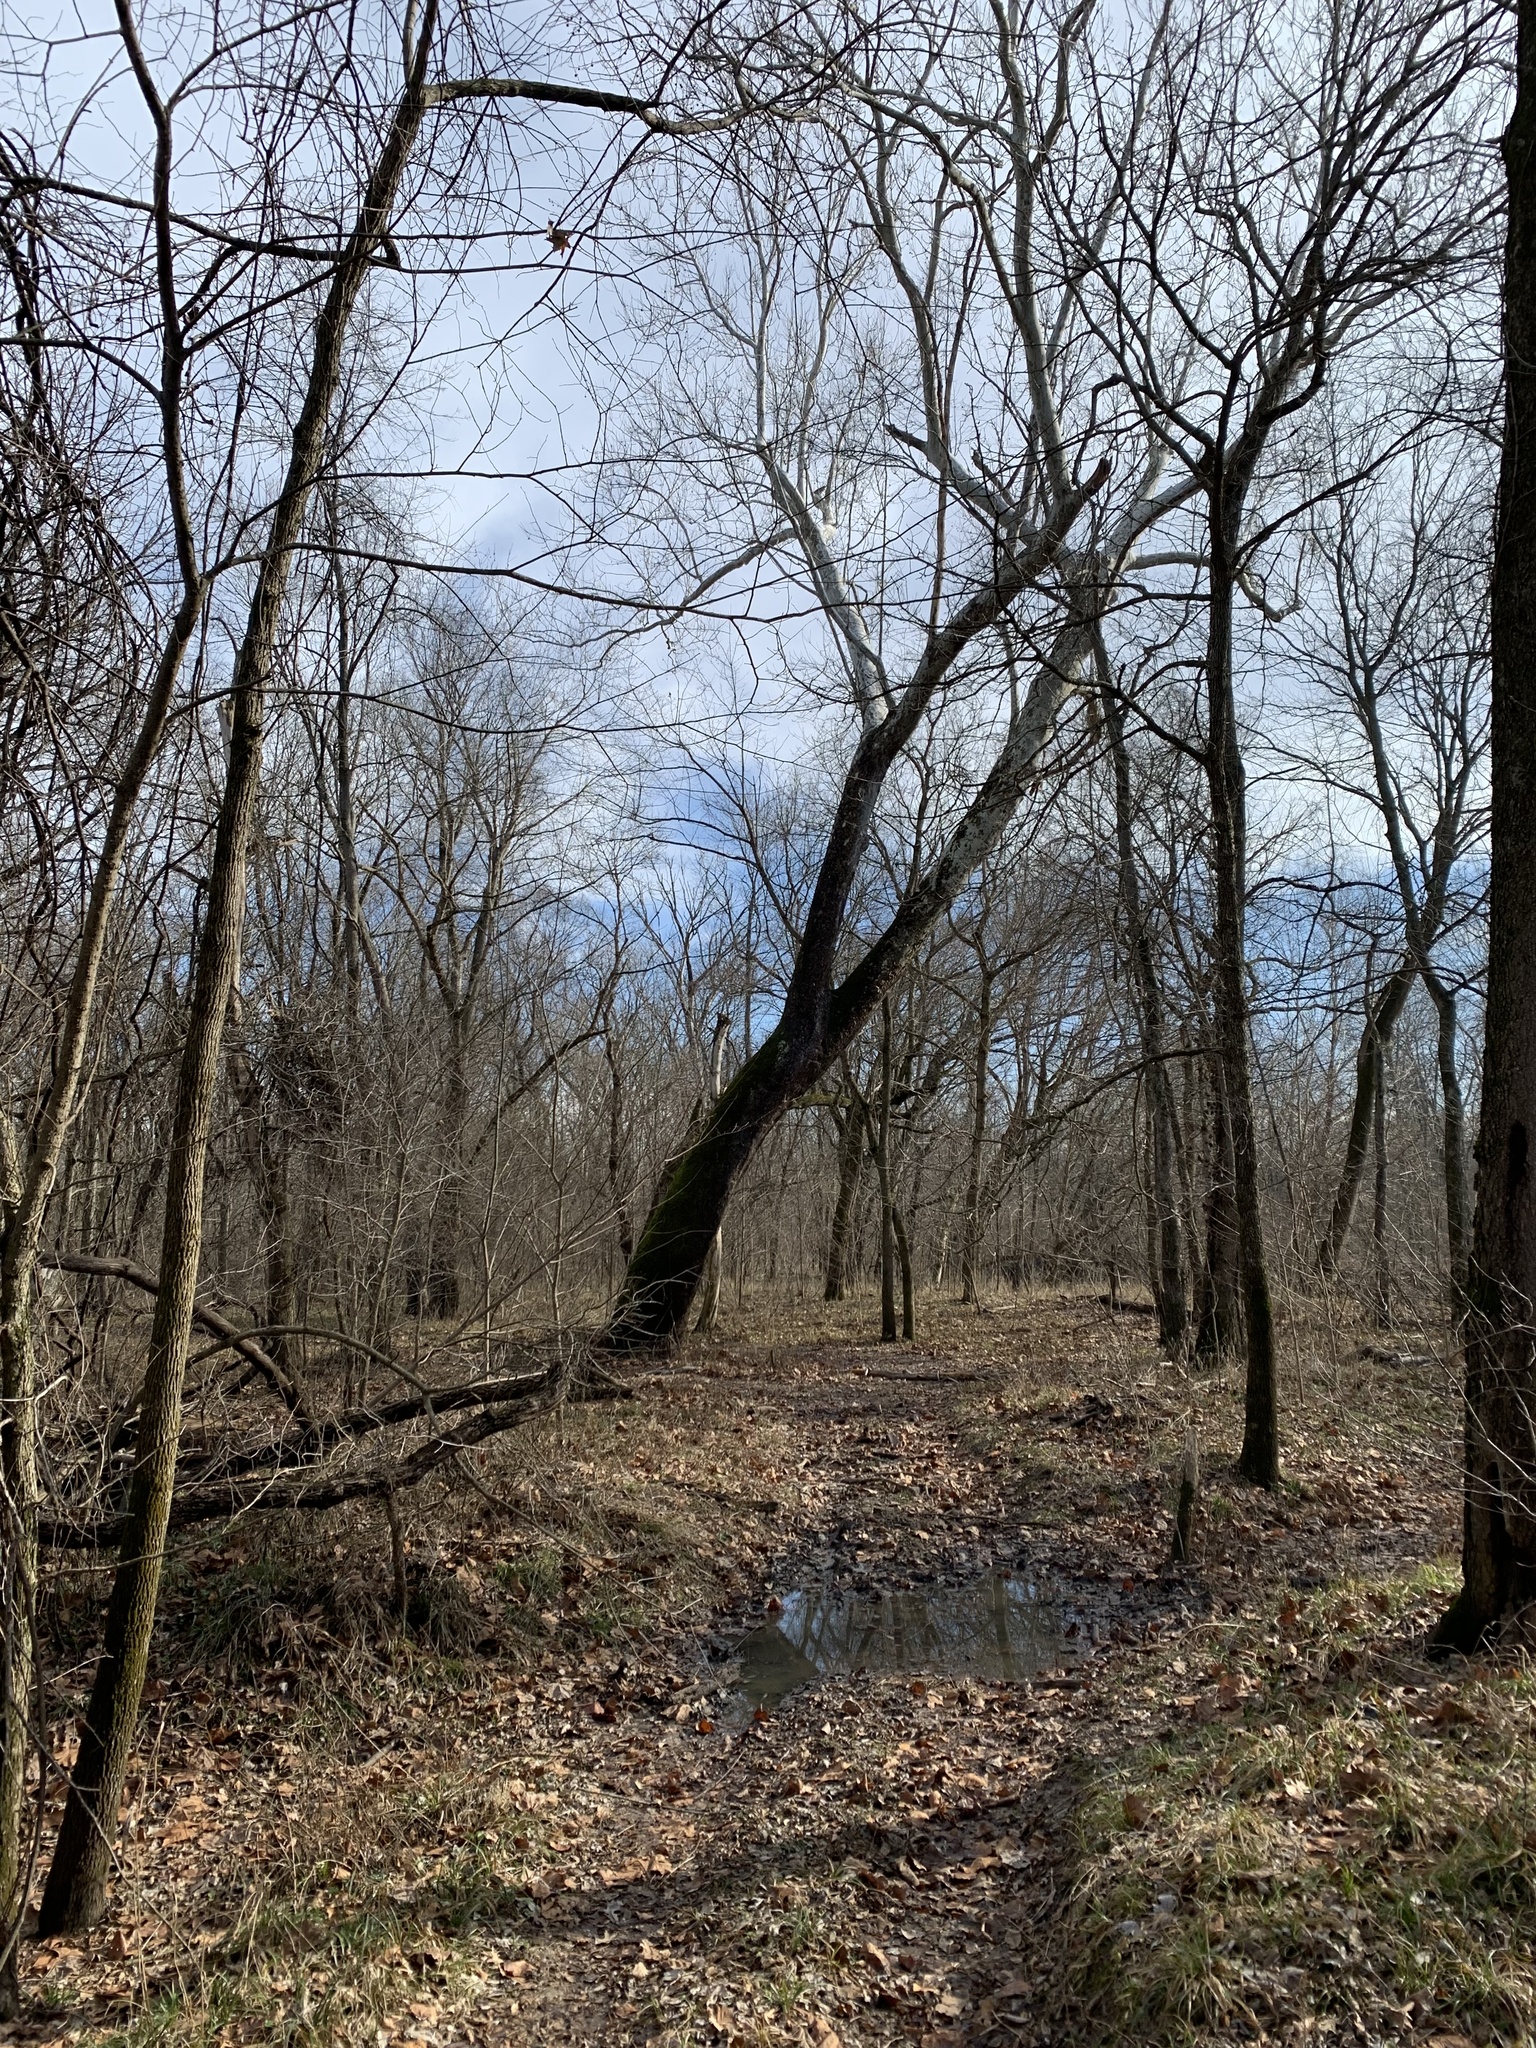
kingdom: Plantae
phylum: Tracheophyta
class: Magnoliopsida
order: Proteales
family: Platanaceae
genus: Platanus
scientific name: Platanus occidentalis
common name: American sycamore
